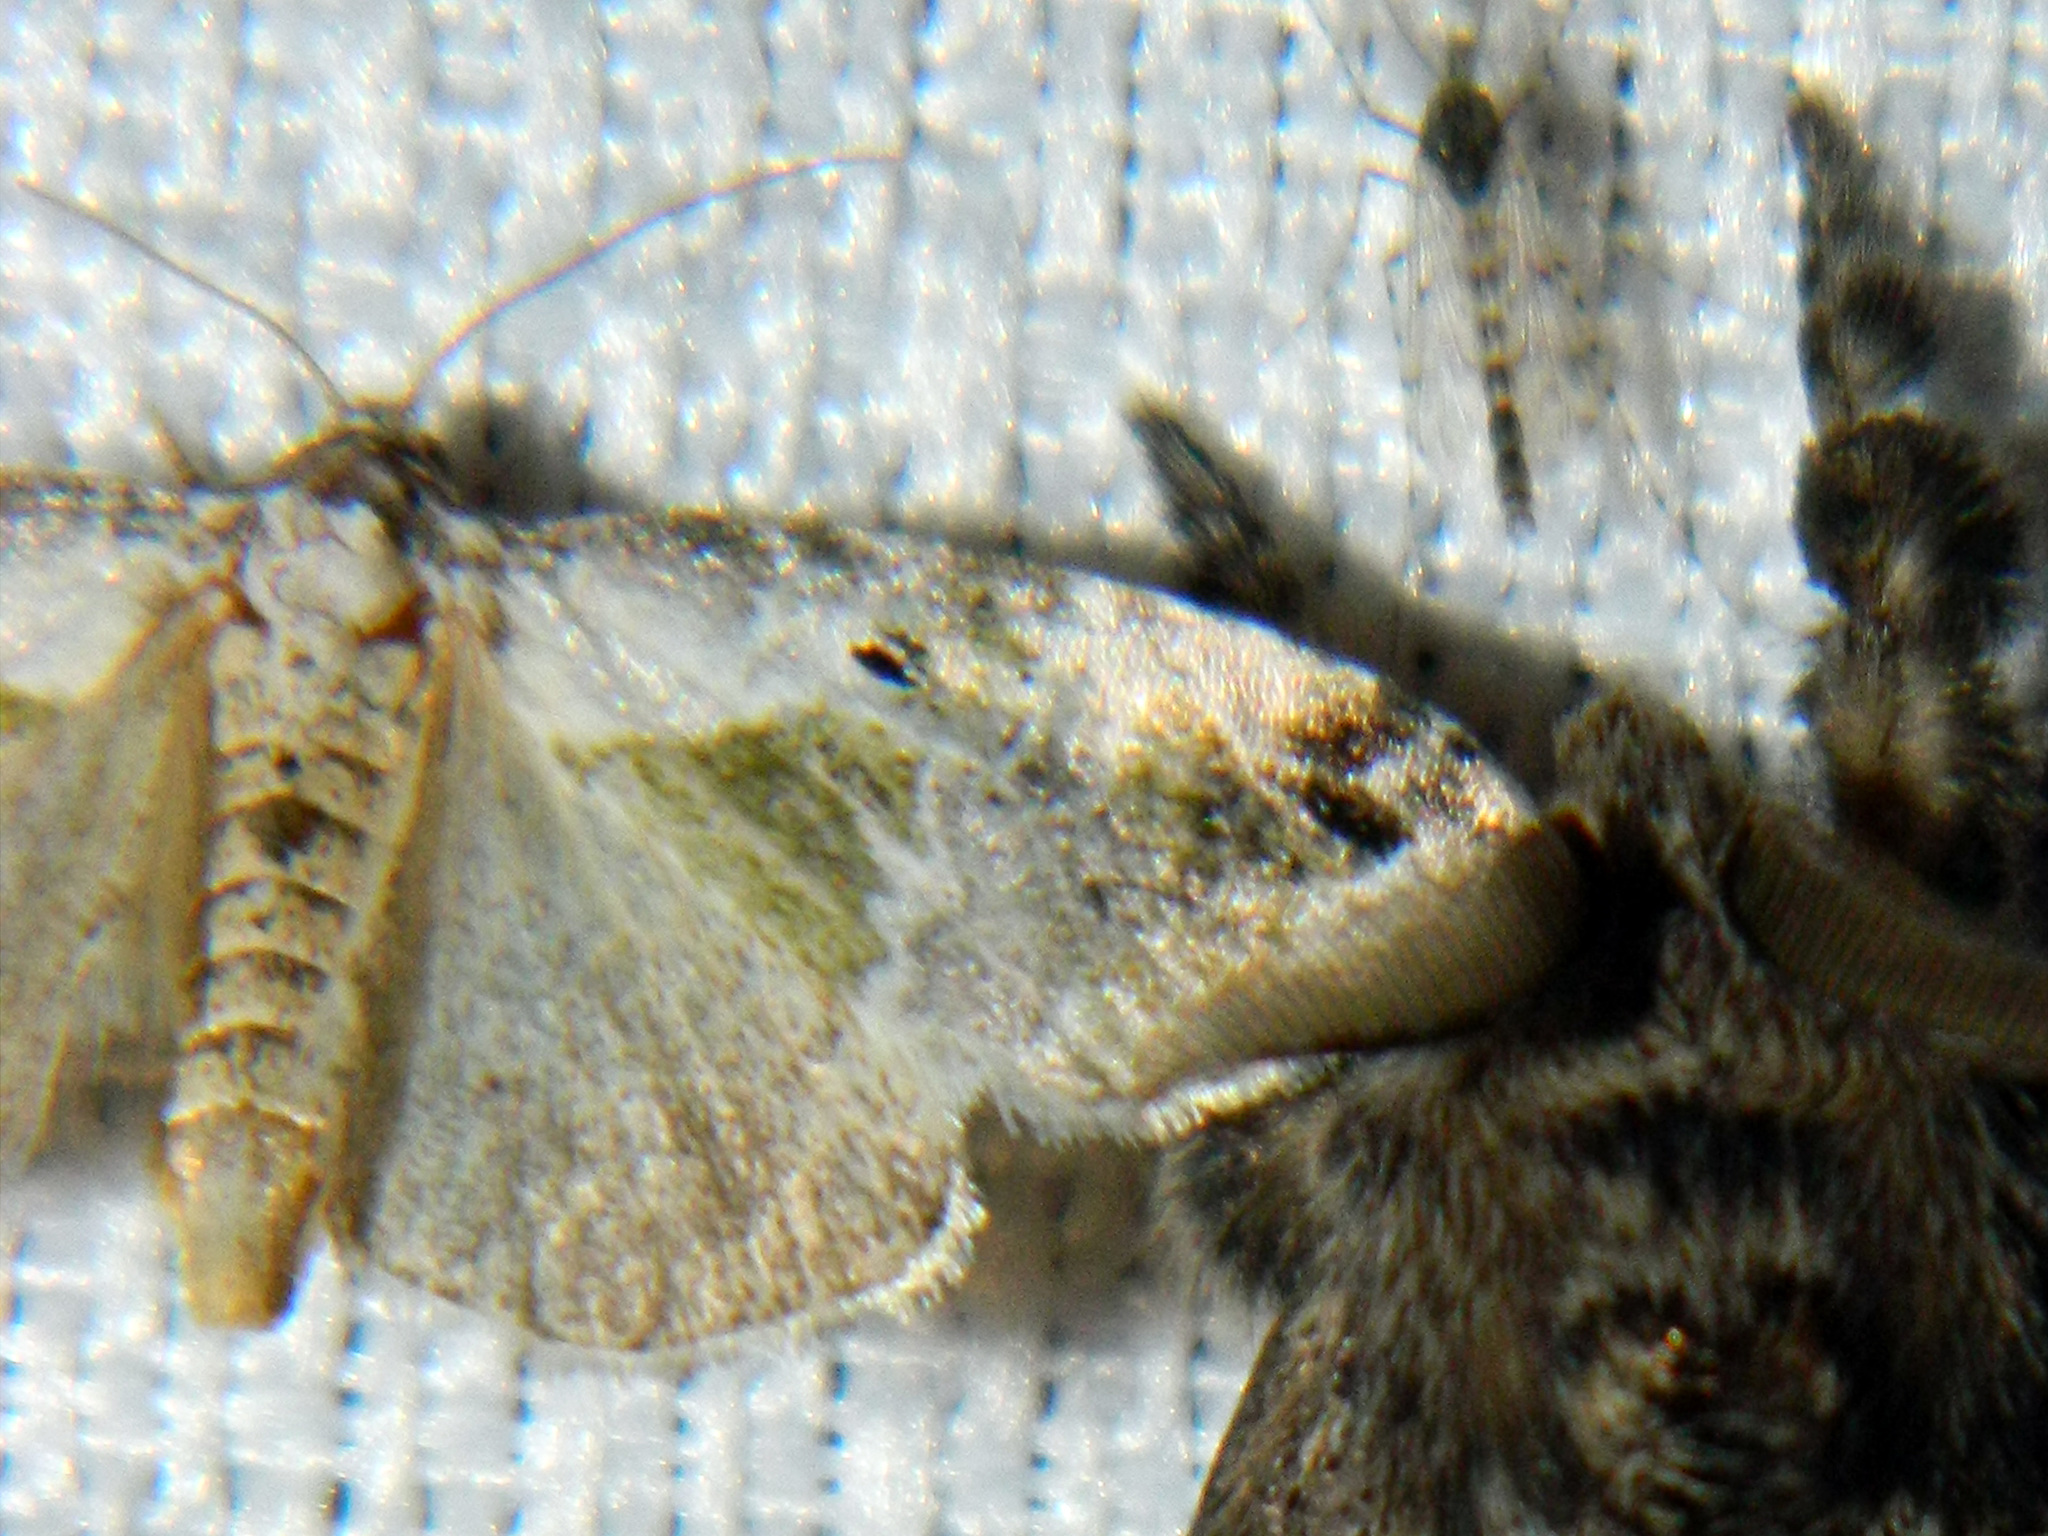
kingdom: Animalia
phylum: Arthropoda
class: Insecta
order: Lepidoptera
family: Noctuidae
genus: Maliattha
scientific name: Maliattha synochitis
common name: Black-dotted glyph
